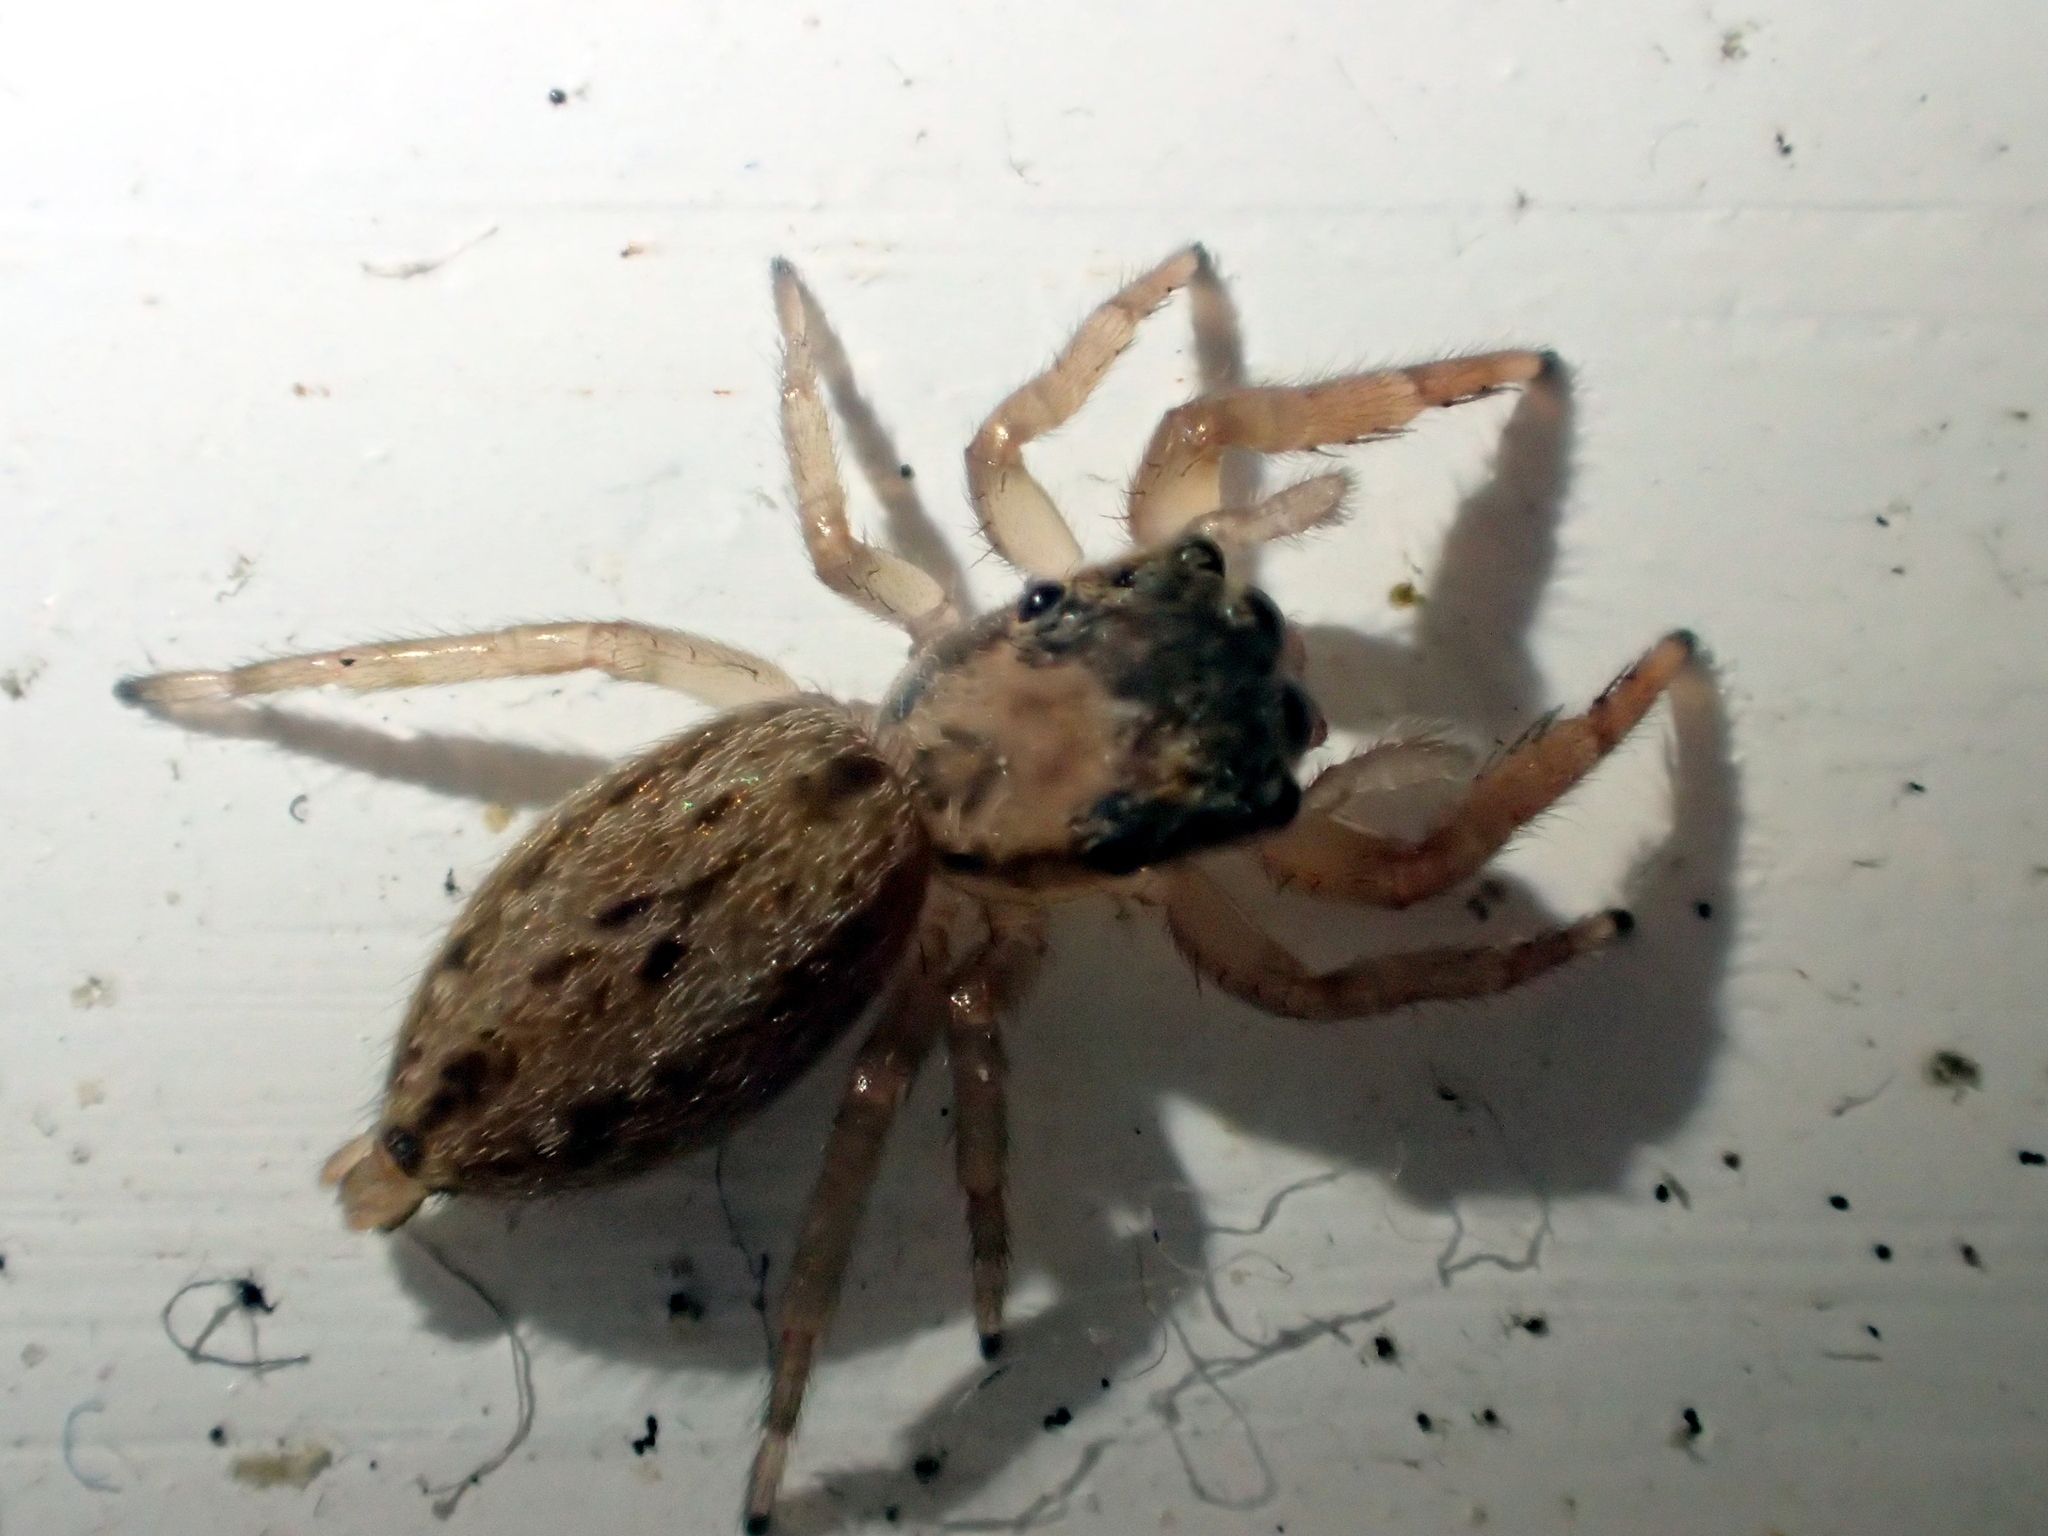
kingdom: Animalia
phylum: Arthropoda
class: Arachnida
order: Araneae
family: Salticidae
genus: Trite
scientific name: Trite auricoma
